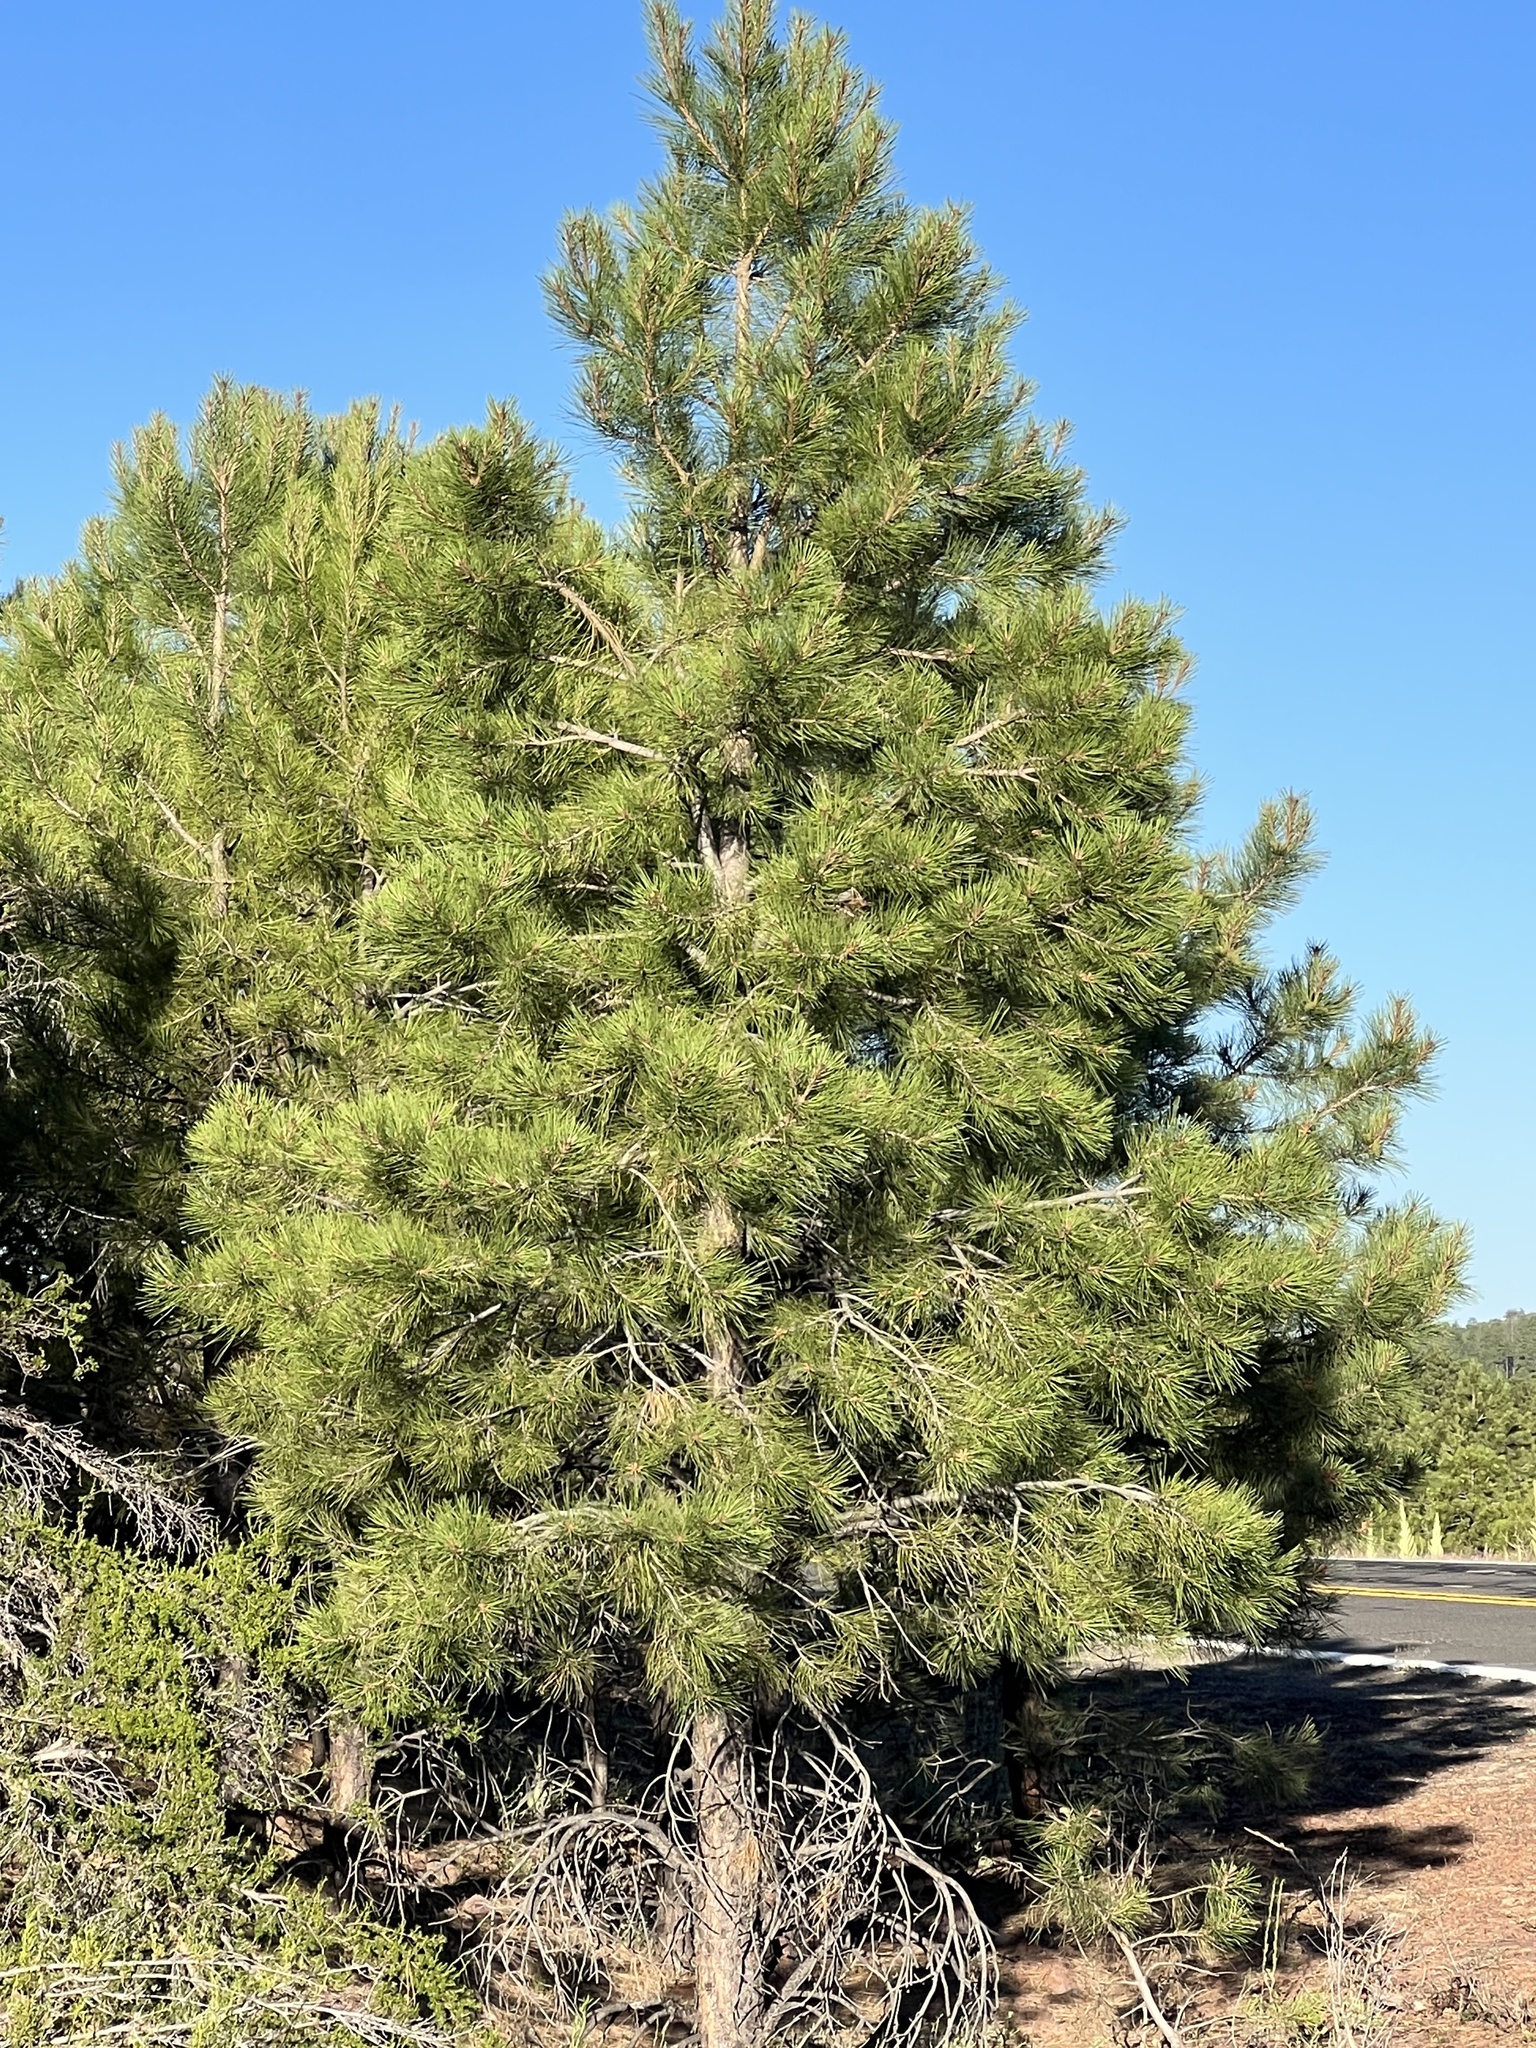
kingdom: Plantae
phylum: Tracheophyta
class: Pinopsida
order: Pinales
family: Pinaceae
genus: Pinus
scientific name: Pinus ponderosa
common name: Western yellow-pine
